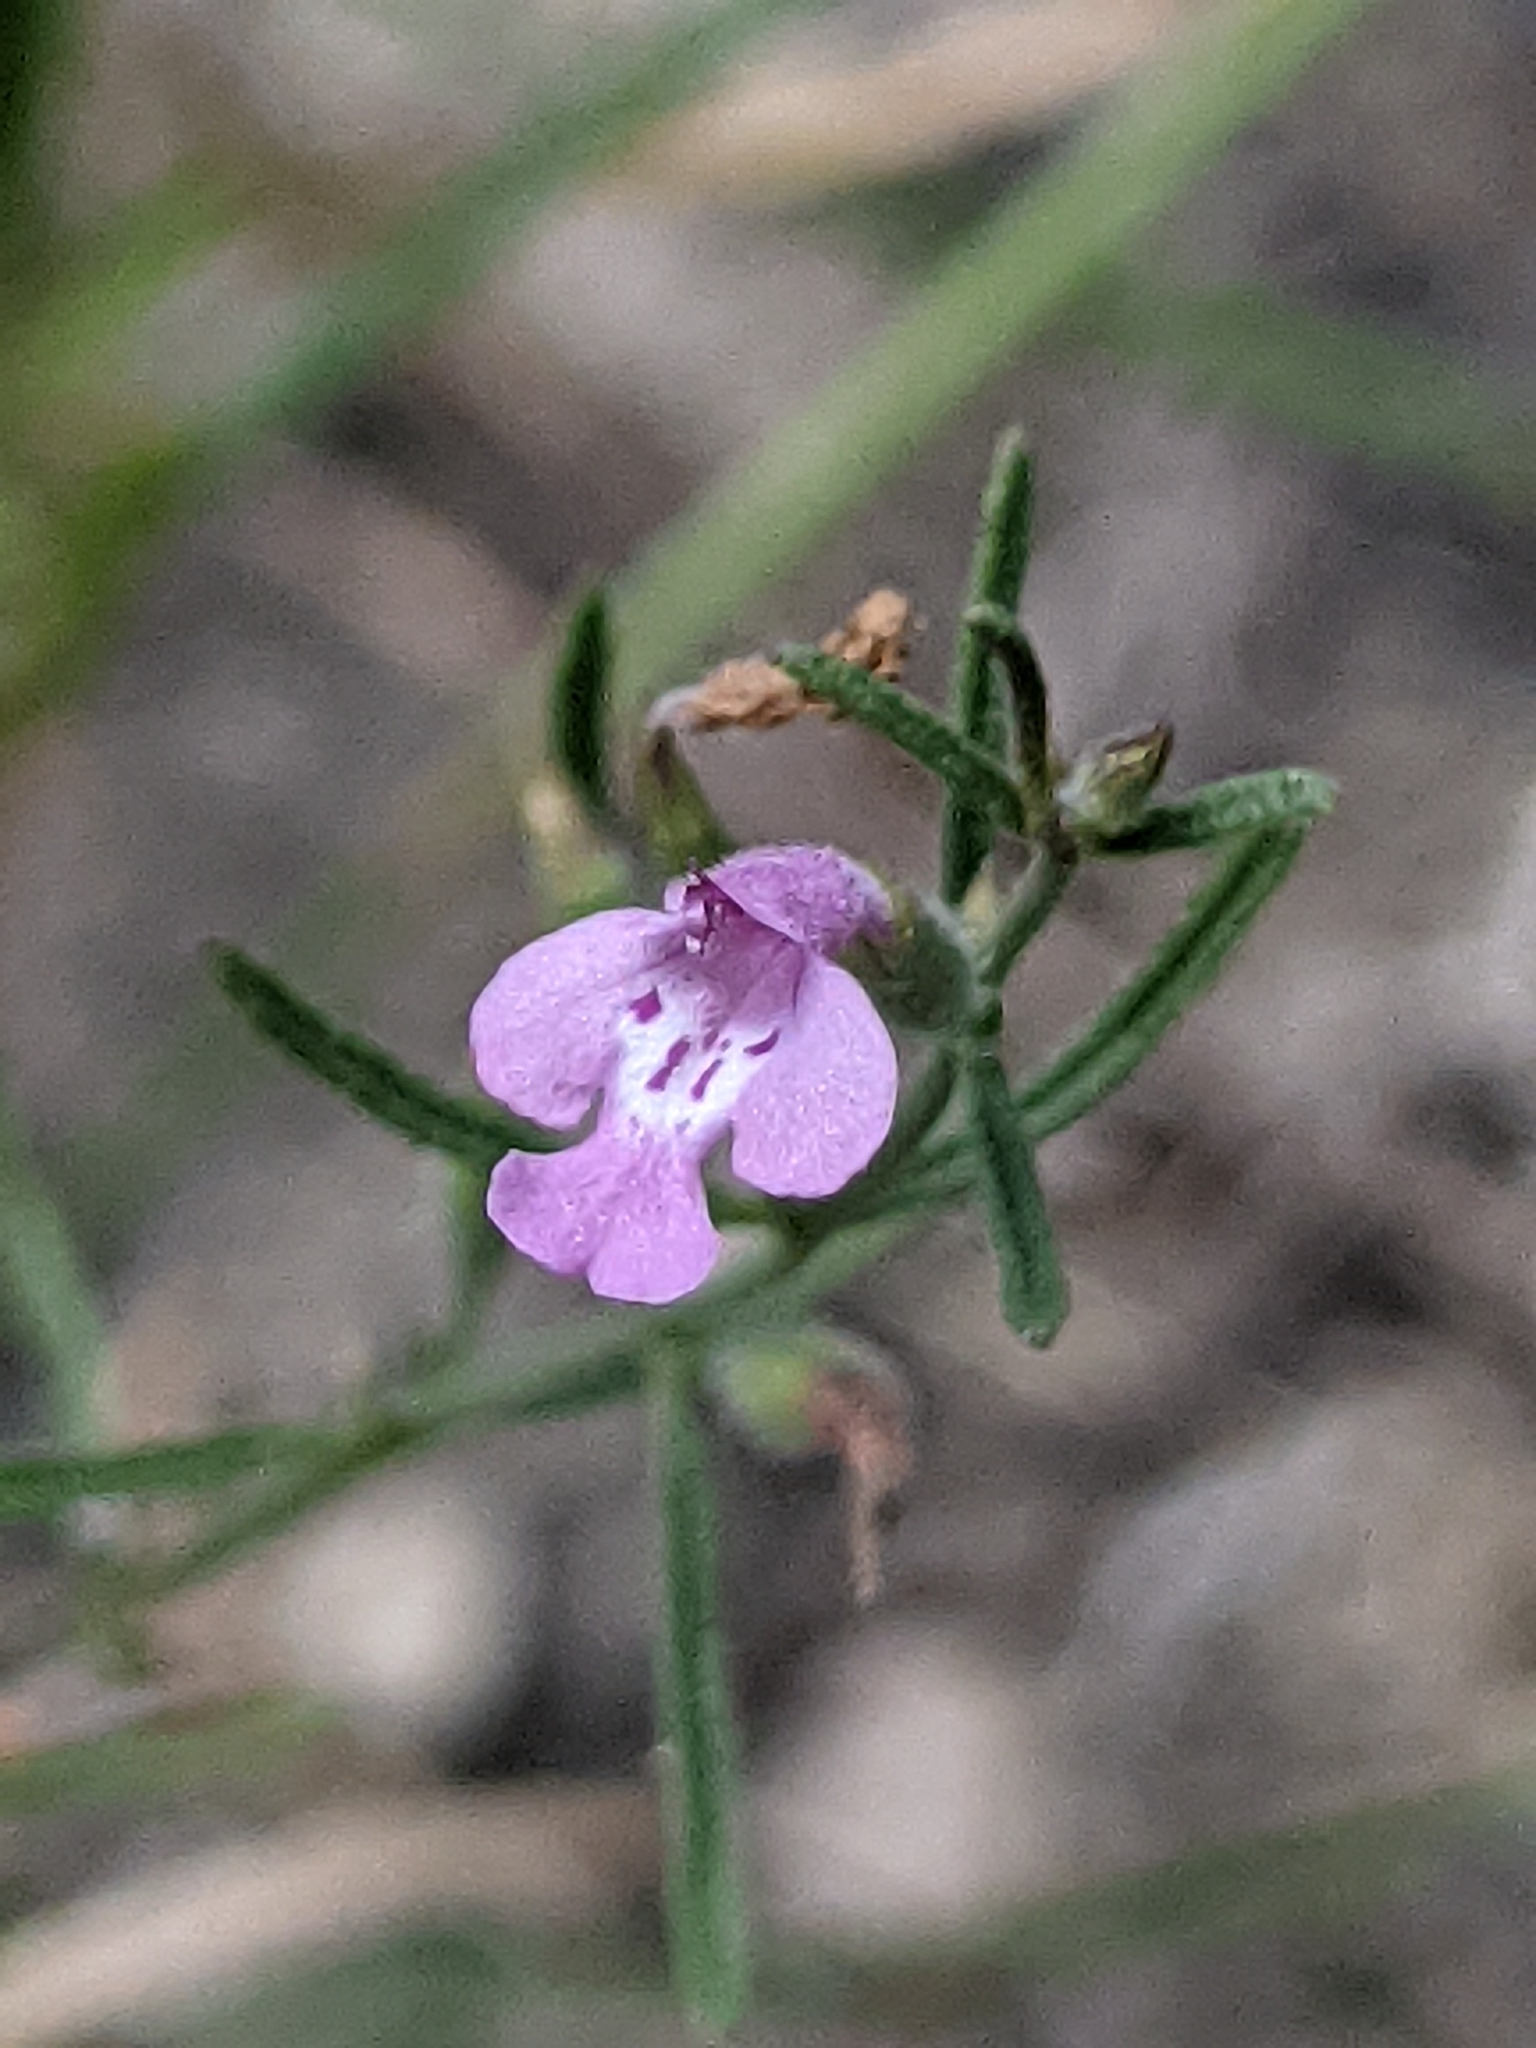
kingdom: Plantae
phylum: Tracheophyta
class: Magnoliopsida
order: Lamiales
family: Lamiaceae
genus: Hedeoma
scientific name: Hedeoma drummondii
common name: New mexico pennyroyal
